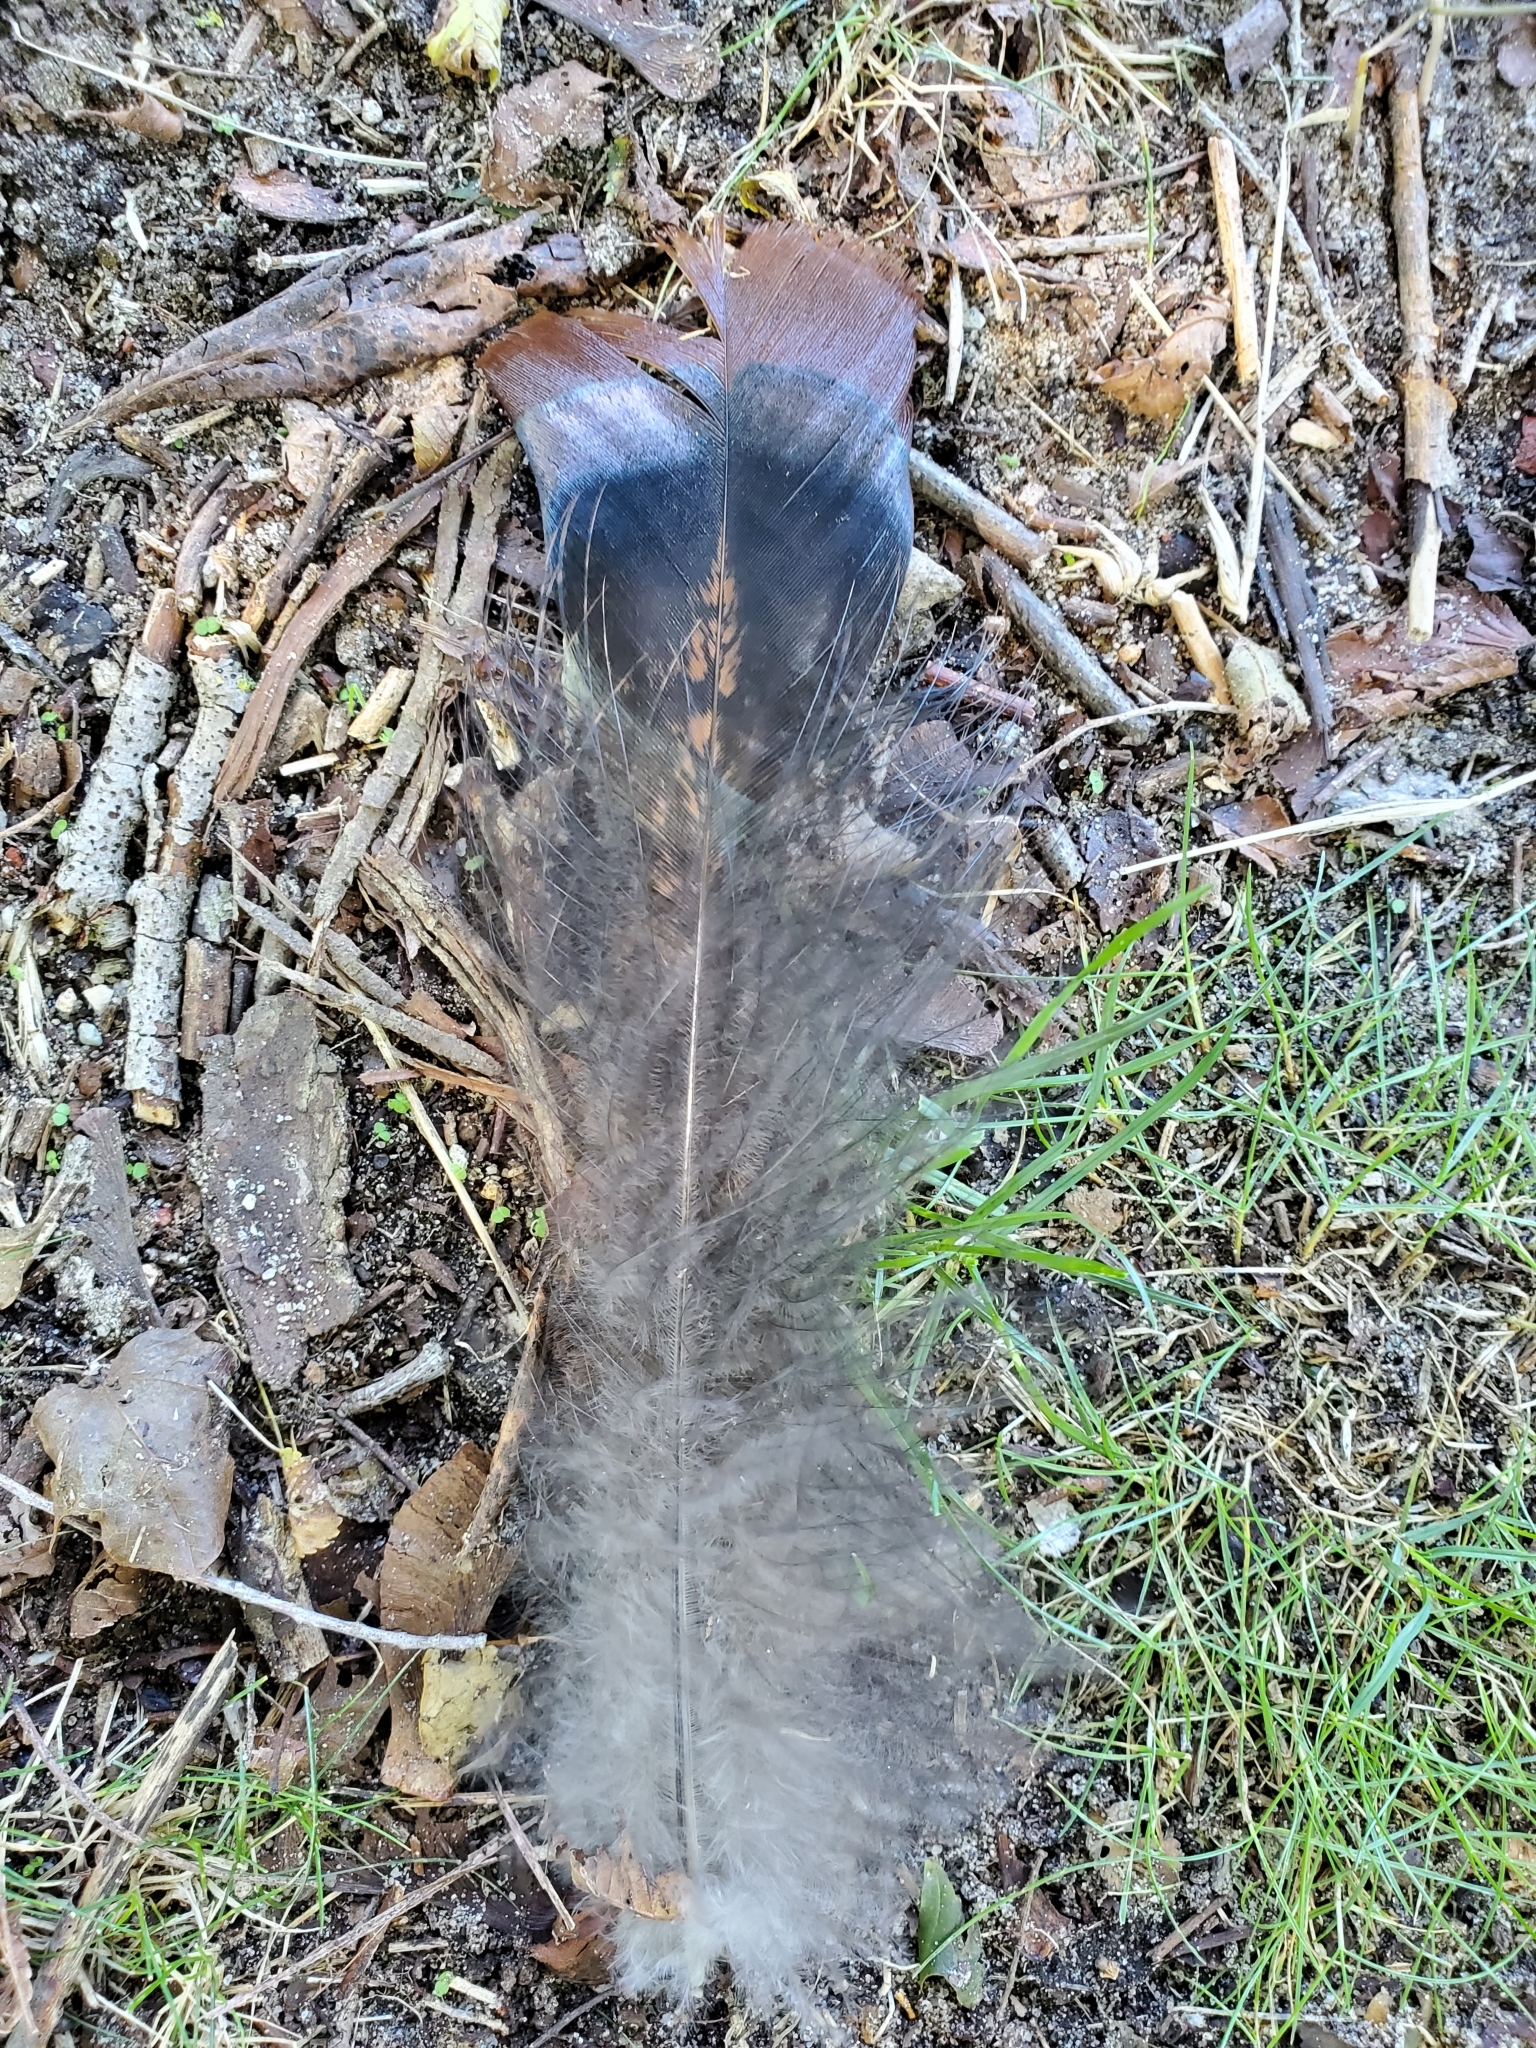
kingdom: Animalia
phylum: Chordata
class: Aves
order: Galliformes
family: Phasianidae
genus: Meleagris
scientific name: Meleagris gallopavo
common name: Wild turkey
